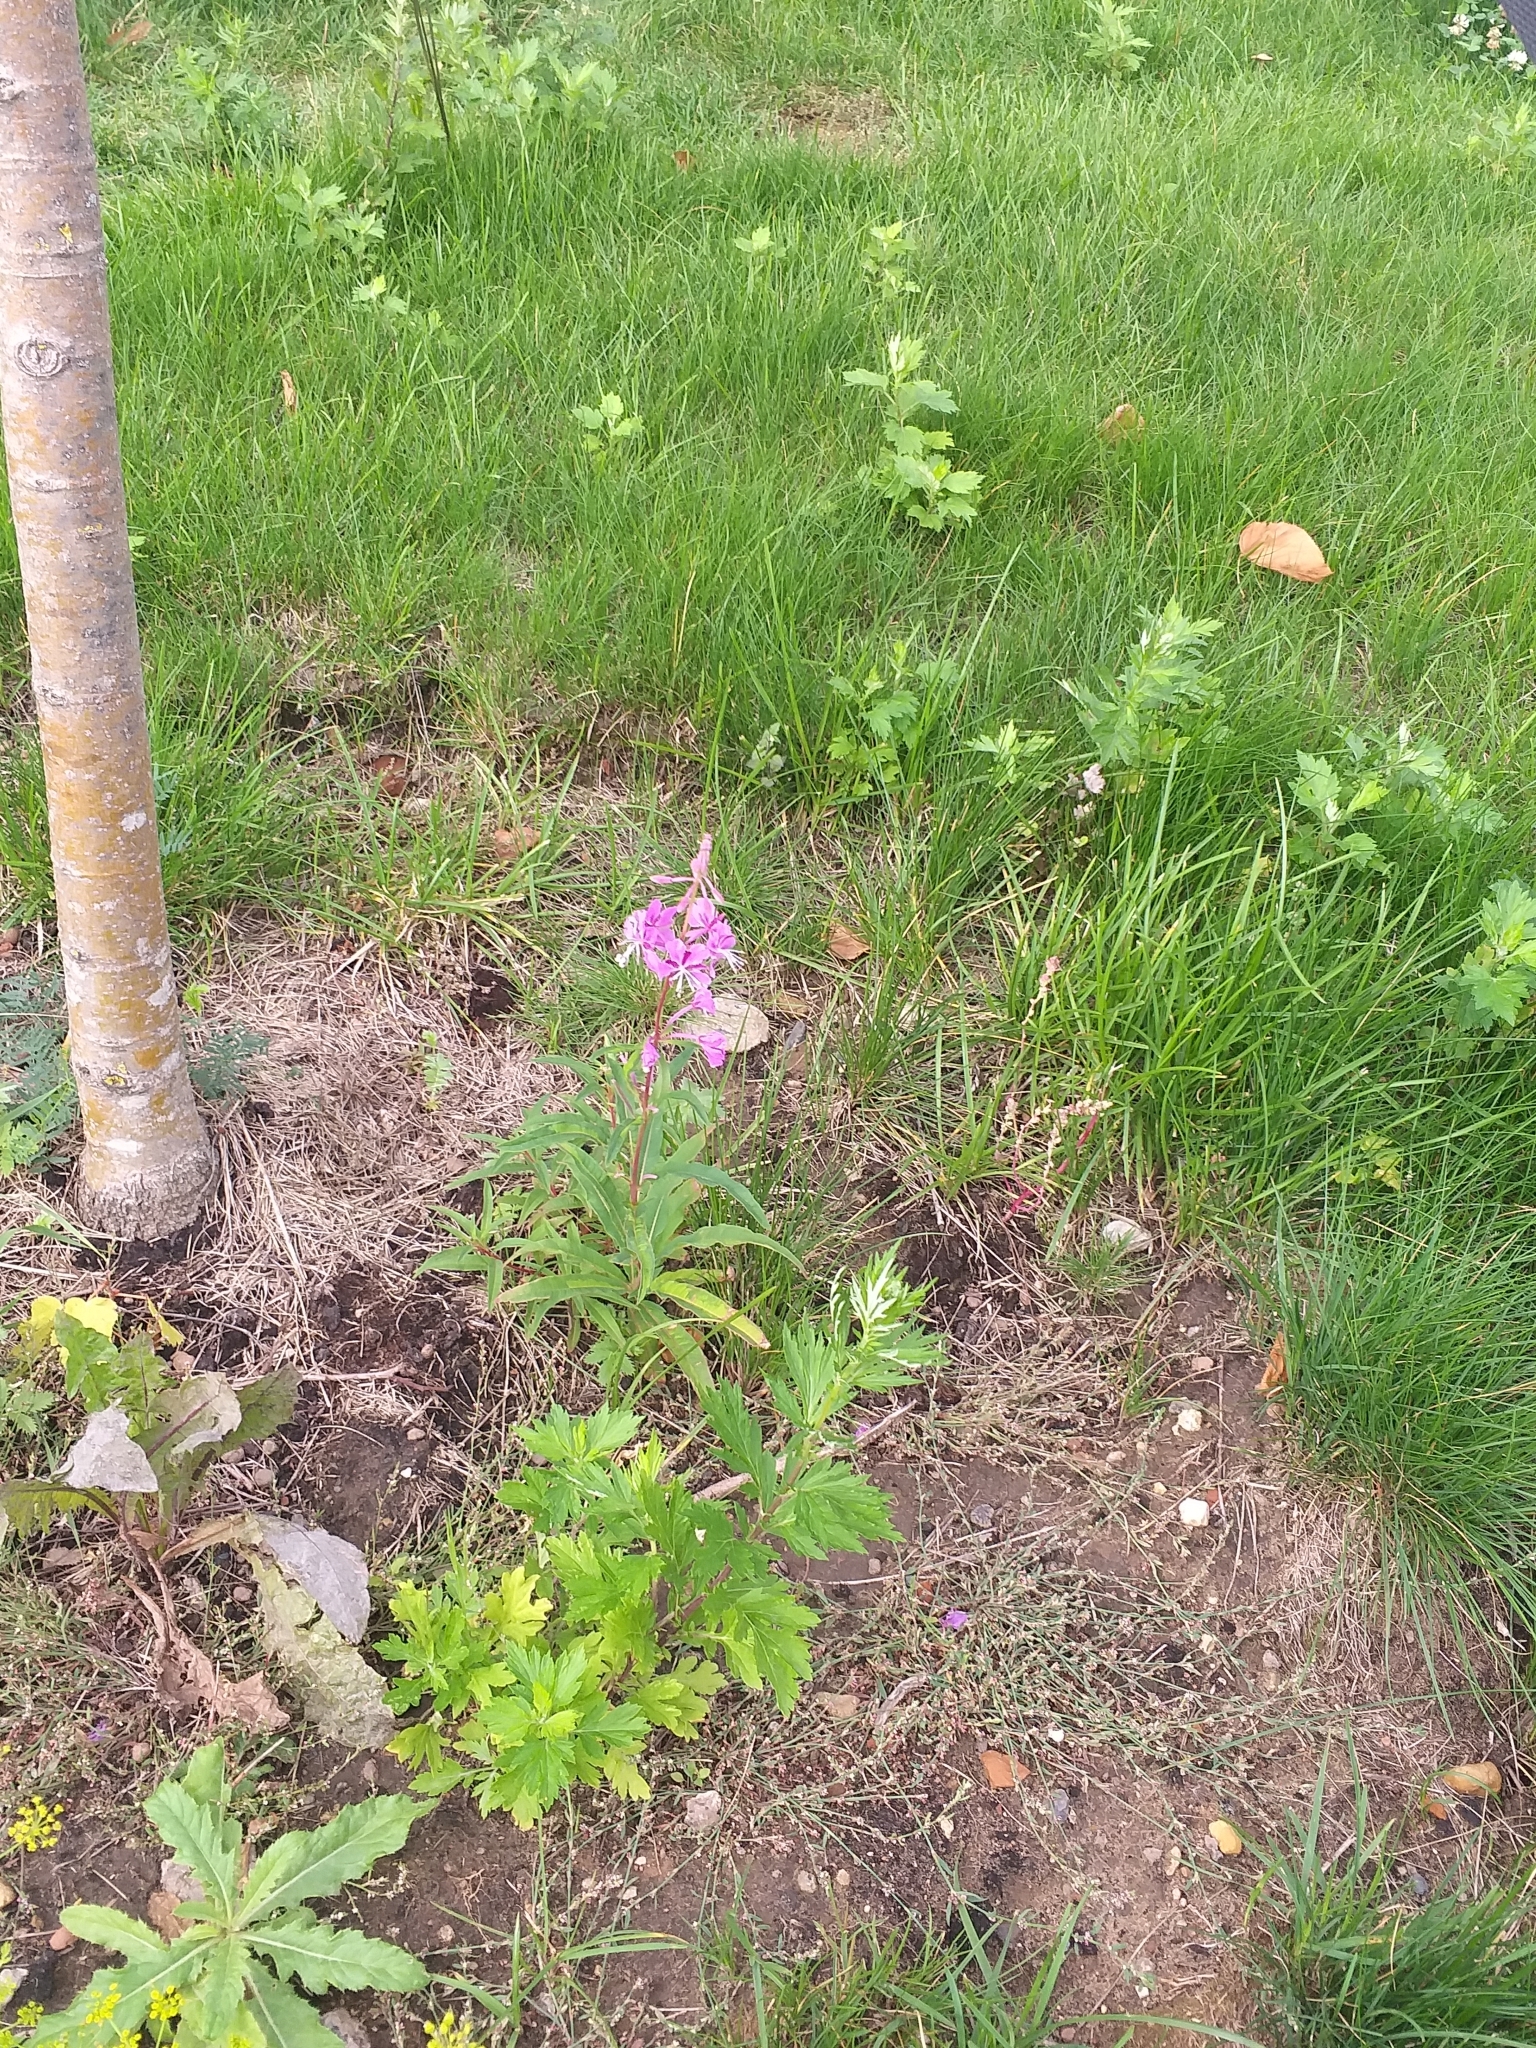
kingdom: Plantae
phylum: Tracheophyta
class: Magnoliopsida
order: Myrtales
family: Onagraceae
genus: Chamaenerion
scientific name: Chamaenerion angustifolium
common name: Fireweed
